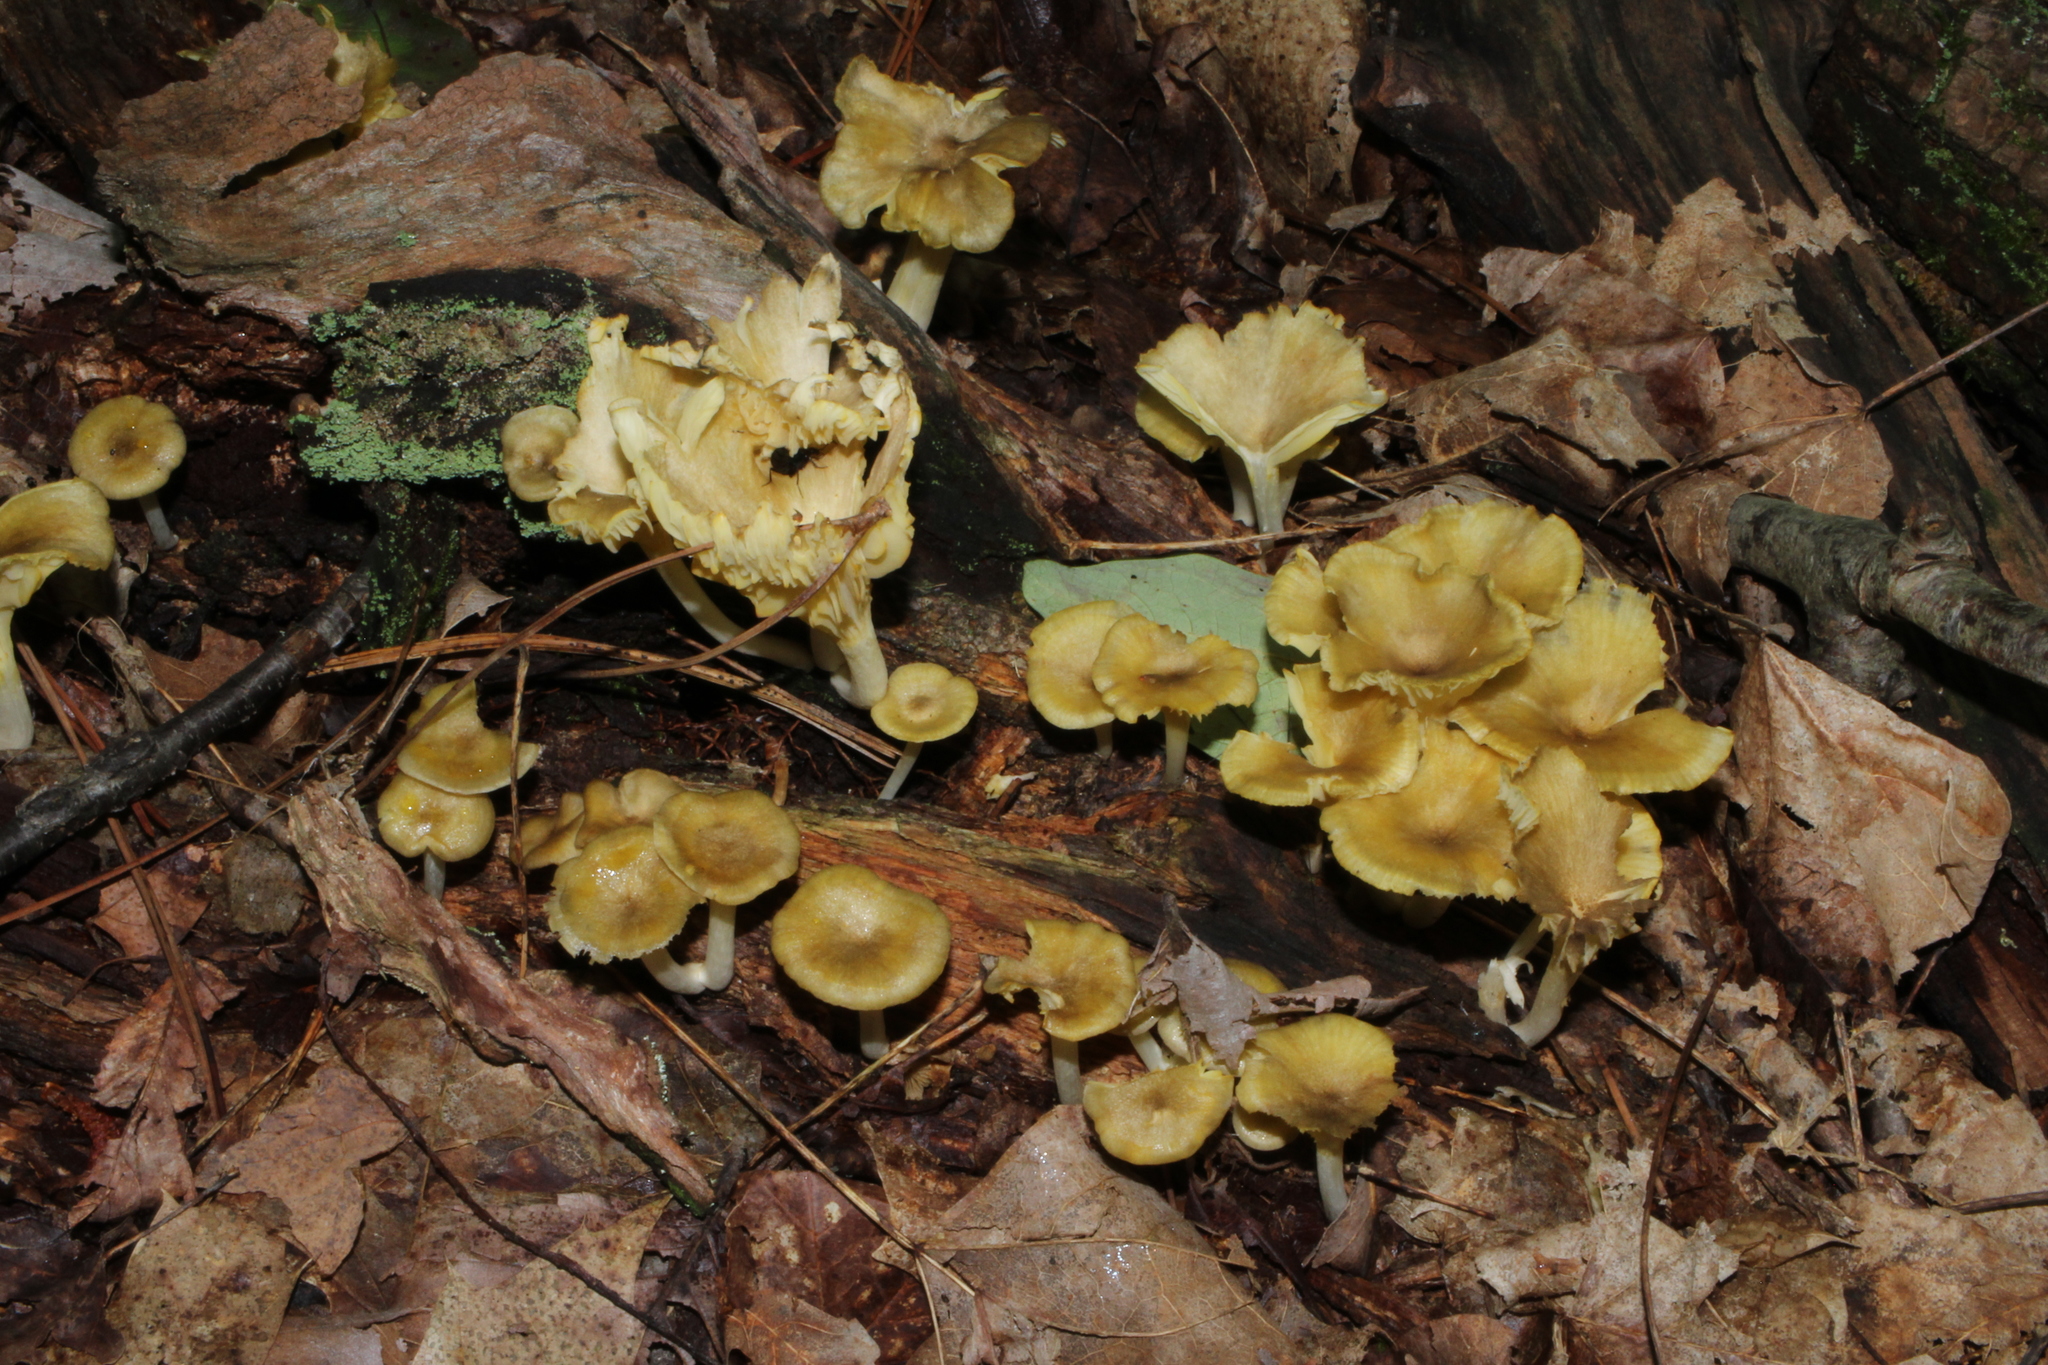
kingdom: Fungi
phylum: Basidiomycota
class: Agaricomycetes
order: Agaricales
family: Marasmiaceae
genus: Gerronema
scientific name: Gerronema strombodes
